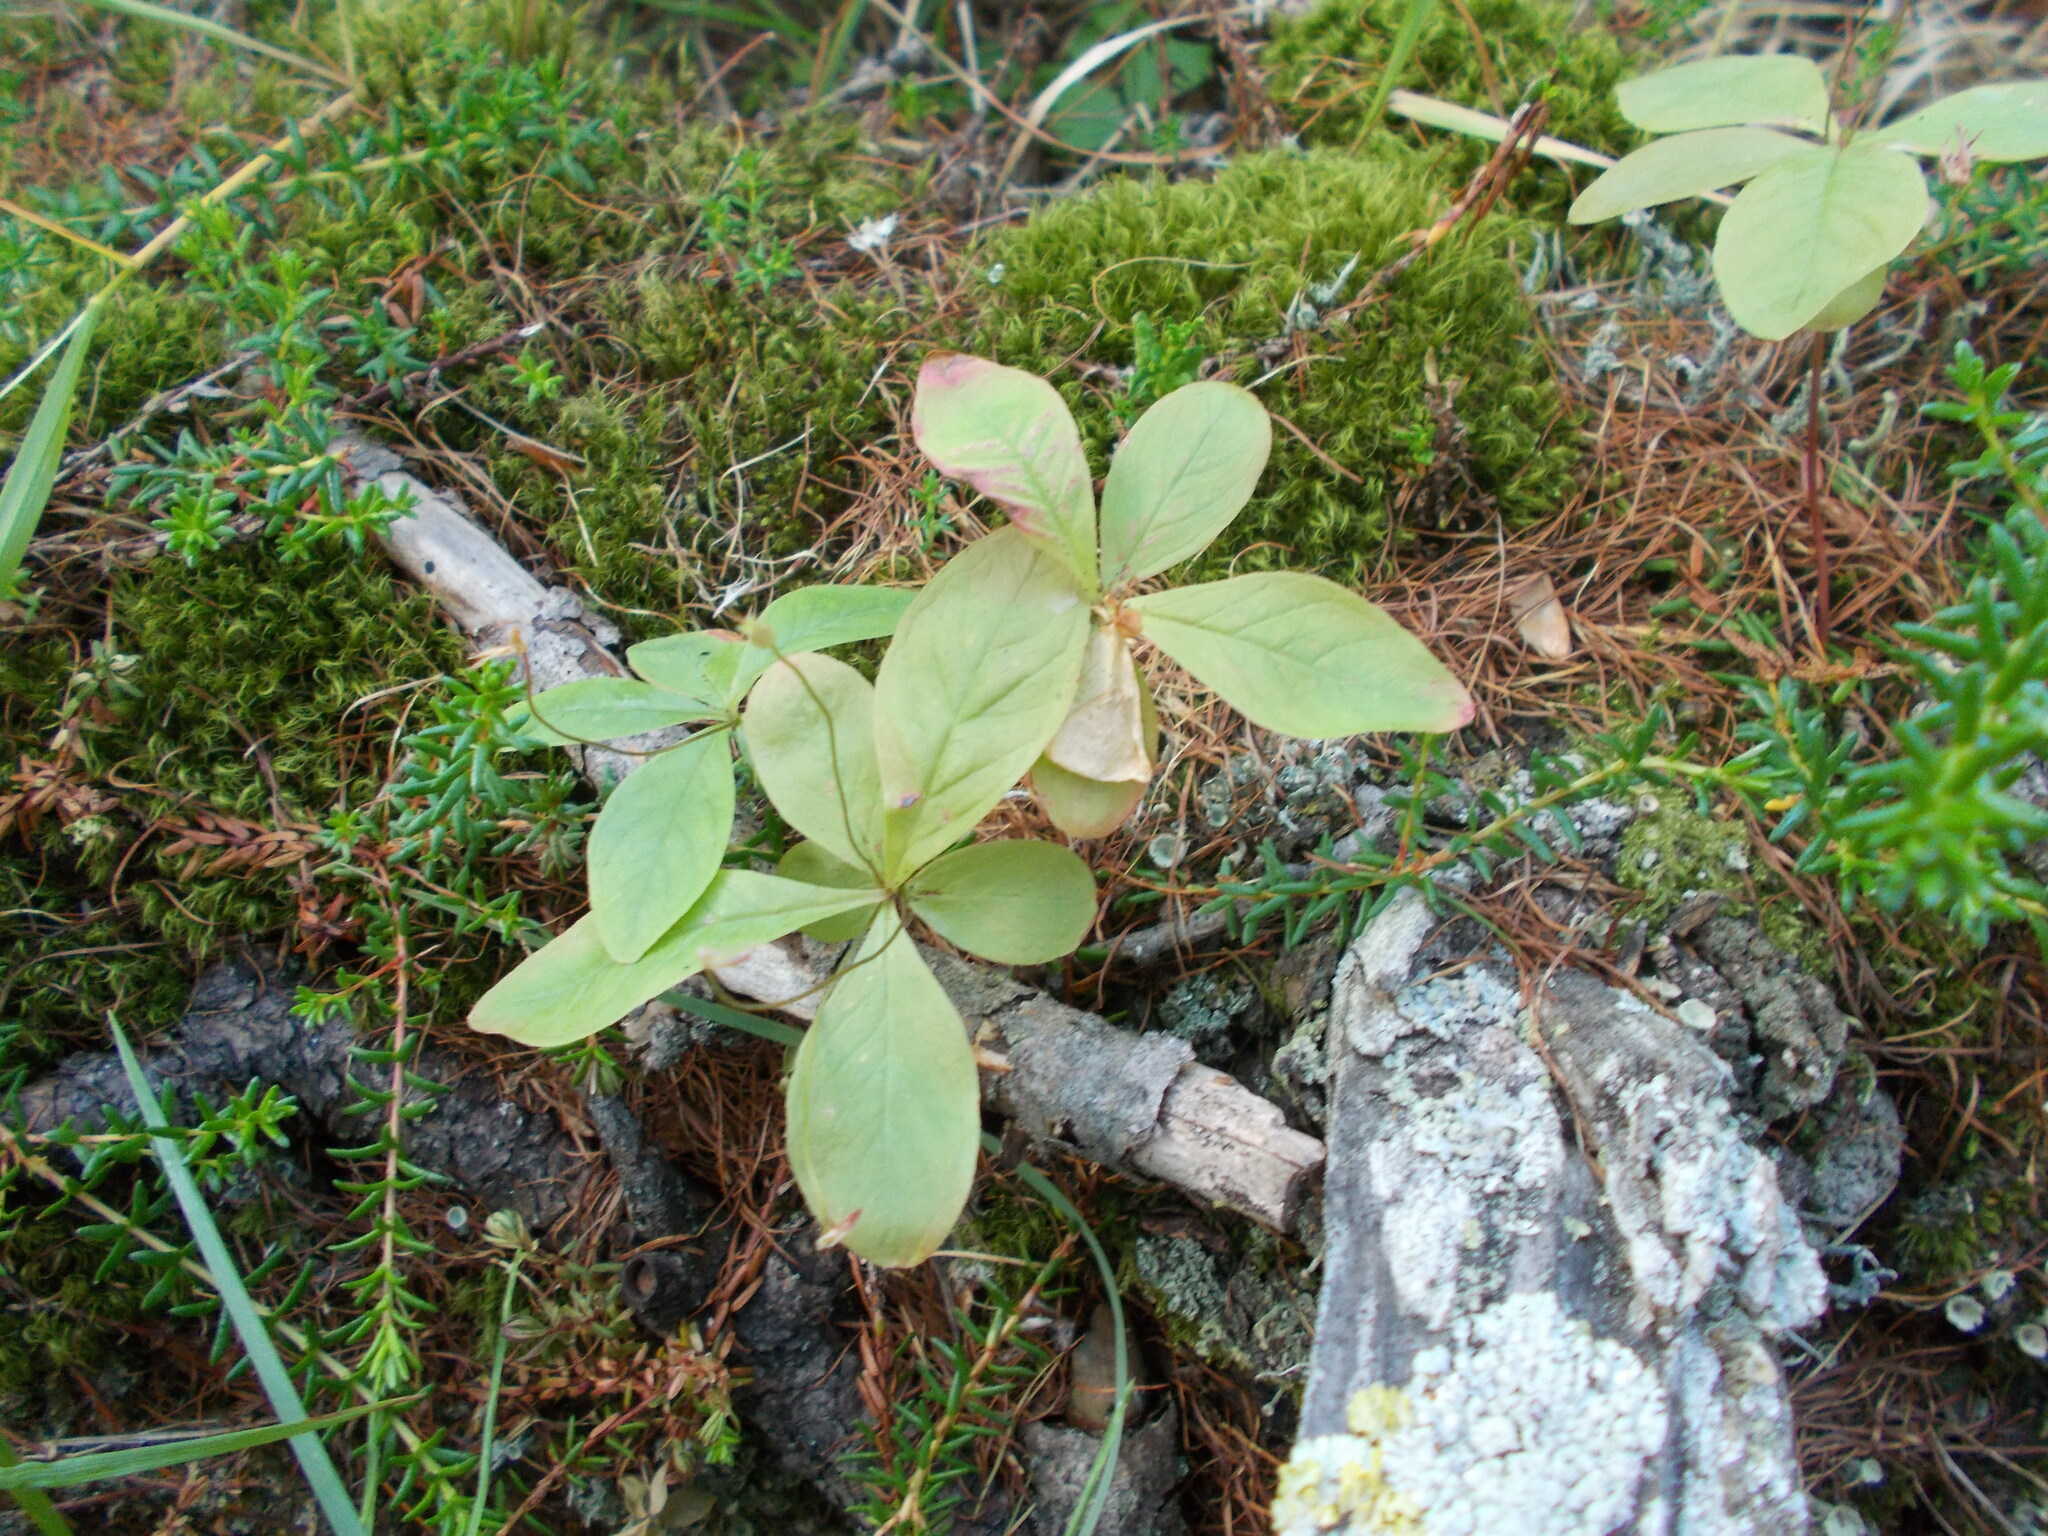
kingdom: Plantae
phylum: Tracheophyta
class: Magnoliopsida
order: Ericales
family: Primulaceae
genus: Lysimachia
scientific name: Lysimachia europaea
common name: Arctic starflower
